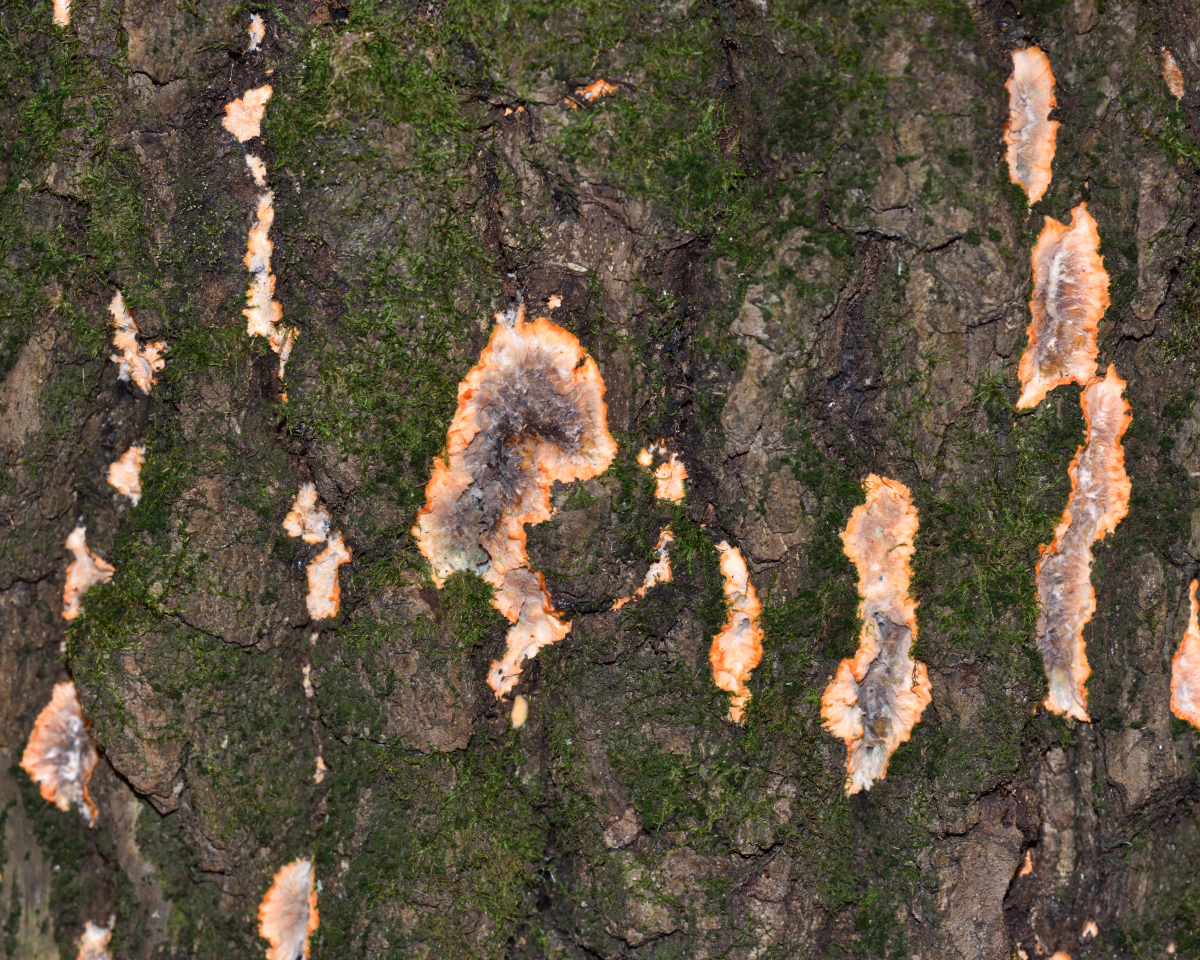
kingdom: Fungi
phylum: Basidiomycota
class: Agaricomycetes
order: Polyporales
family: Meruliaceae
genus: Phlebia
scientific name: Phlebia radiata
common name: Wrinkled crust
